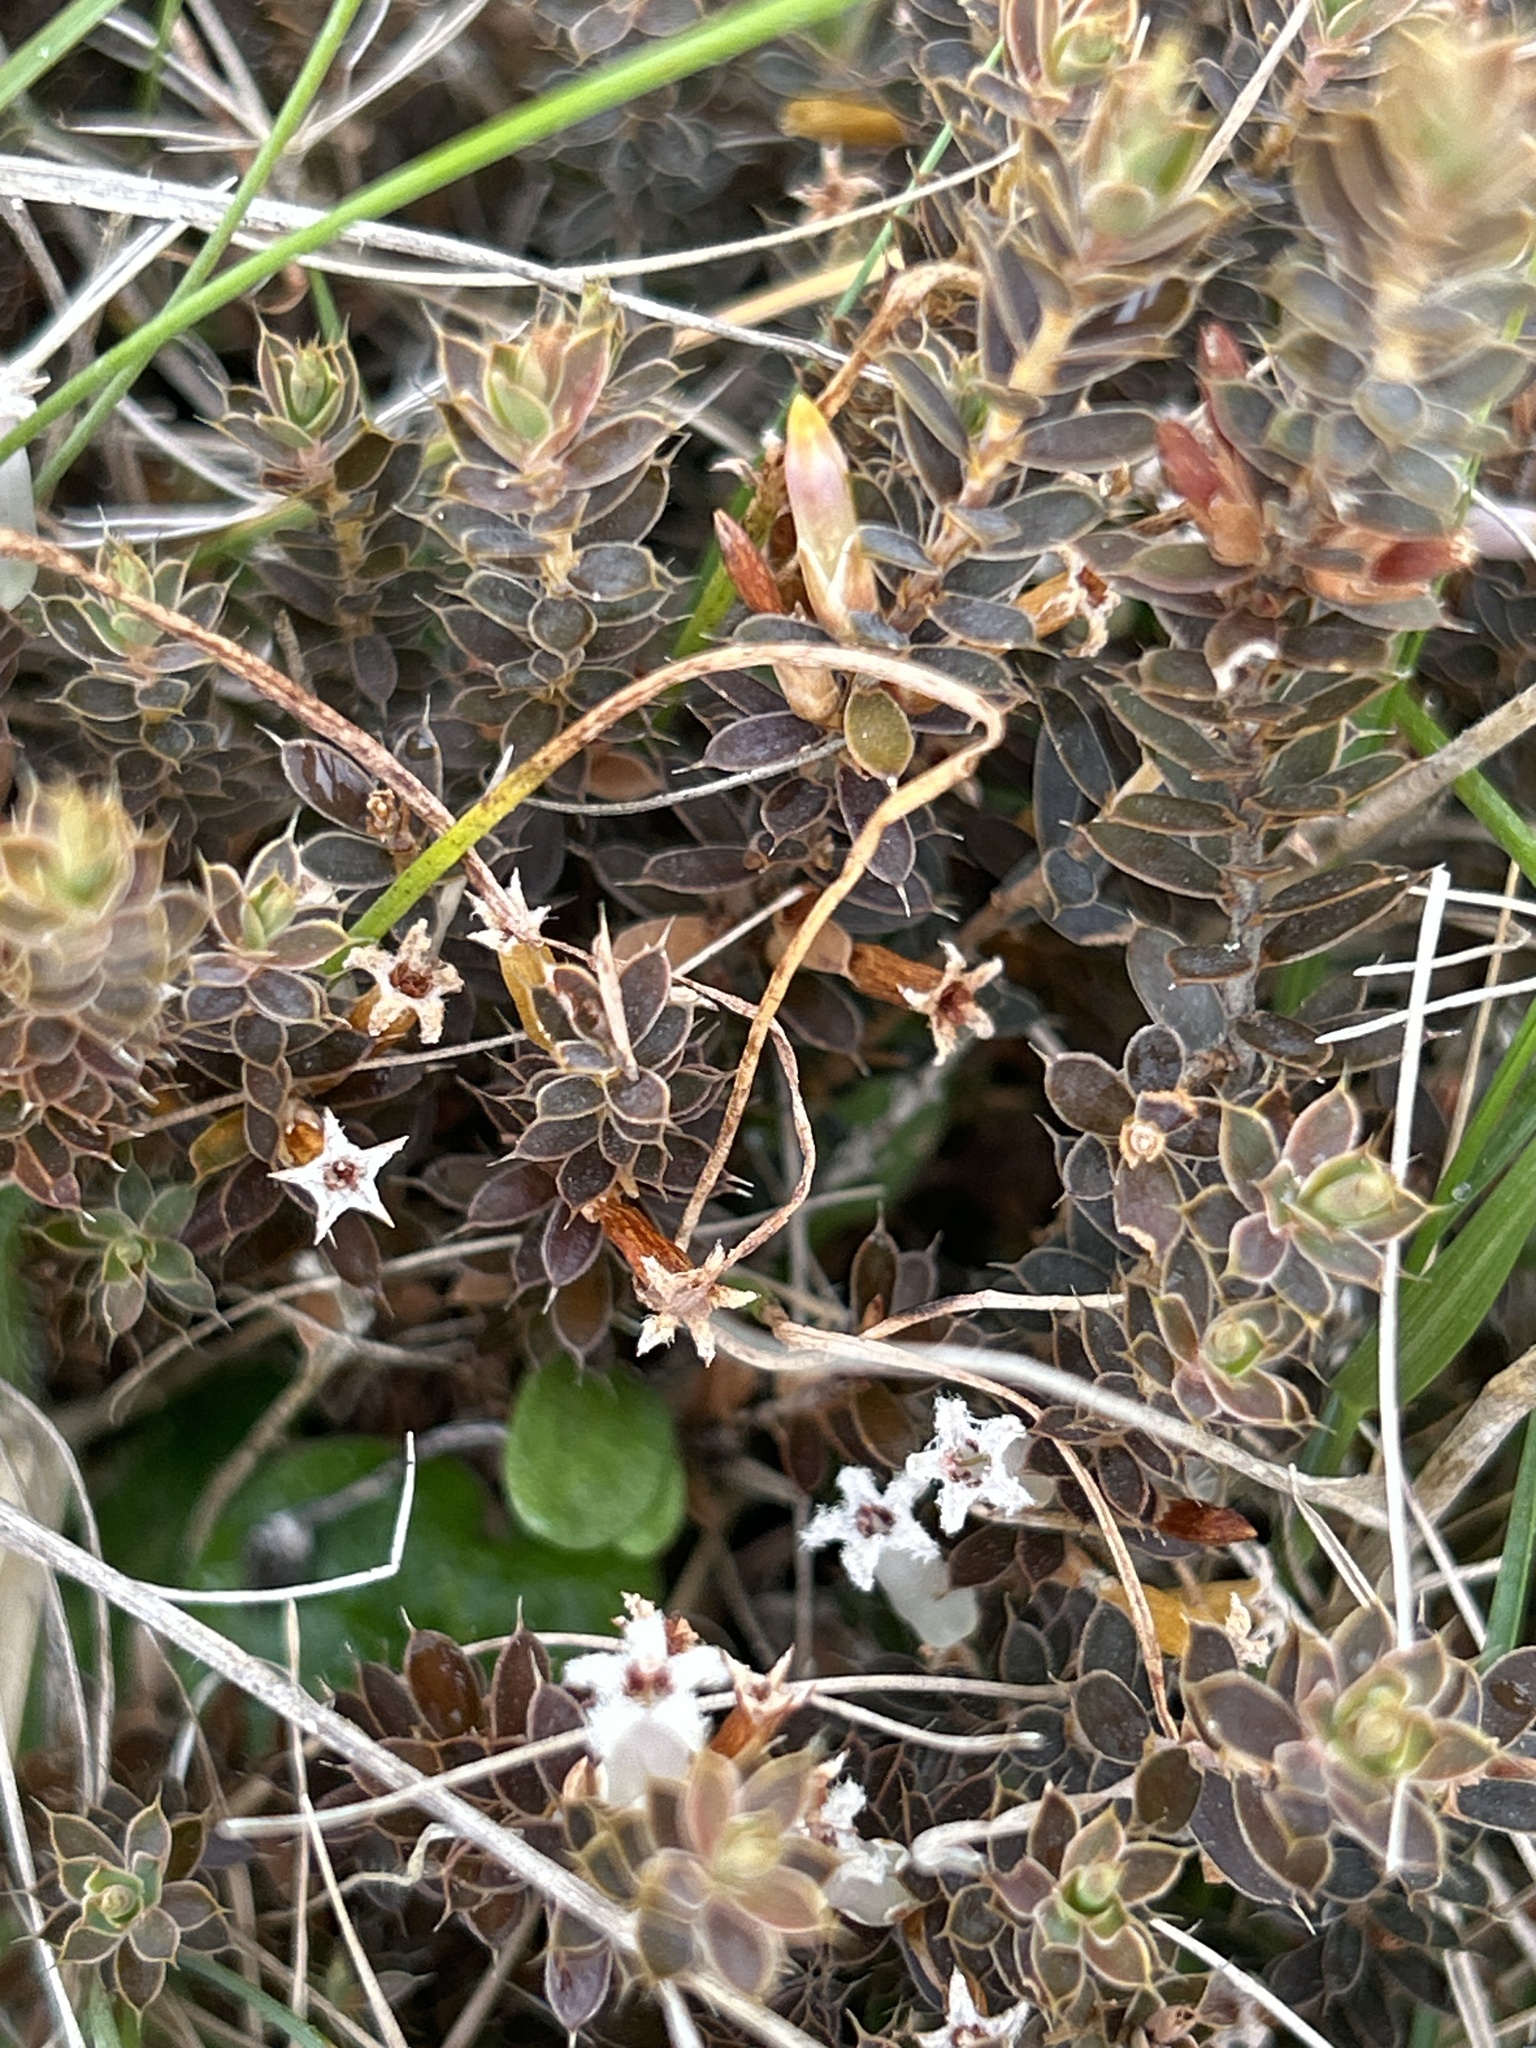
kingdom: Plantae
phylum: Tracheophyta
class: Magnoliopsida
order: Ericales
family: Ericaceae
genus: Styphelia
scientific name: Styphelia nesophila
